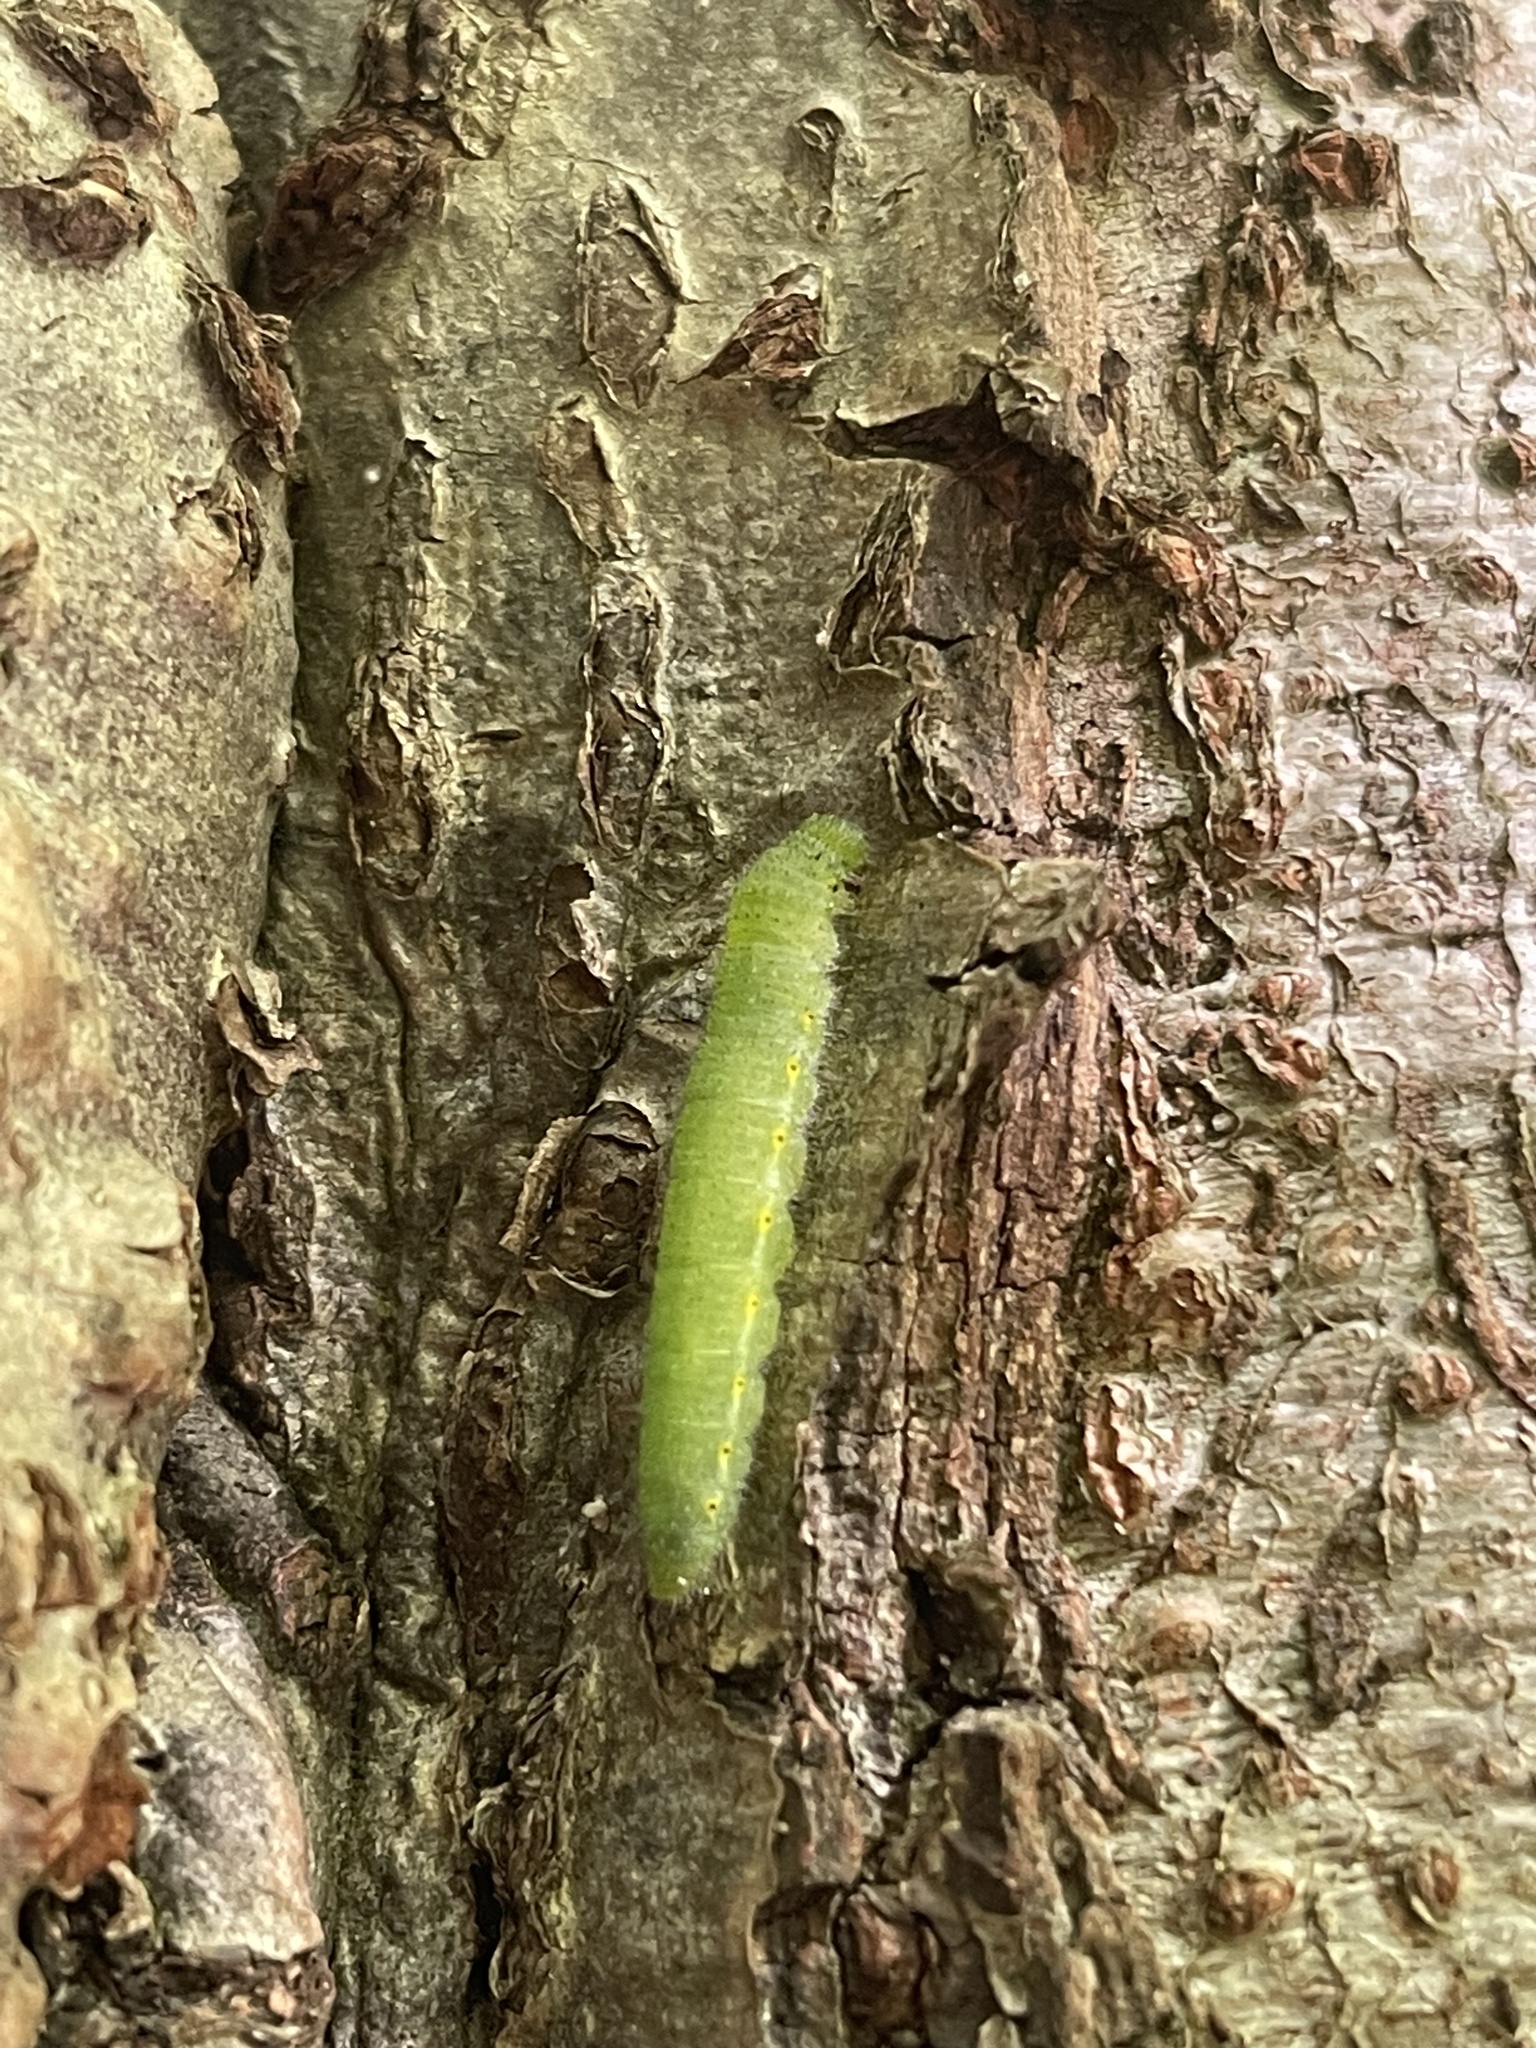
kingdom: Animalia
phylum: Arthropoda
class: Insecta
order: Lepidoptera
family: Pieridae
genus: Pieris
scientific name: Pieris napi
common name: Green-veined white
